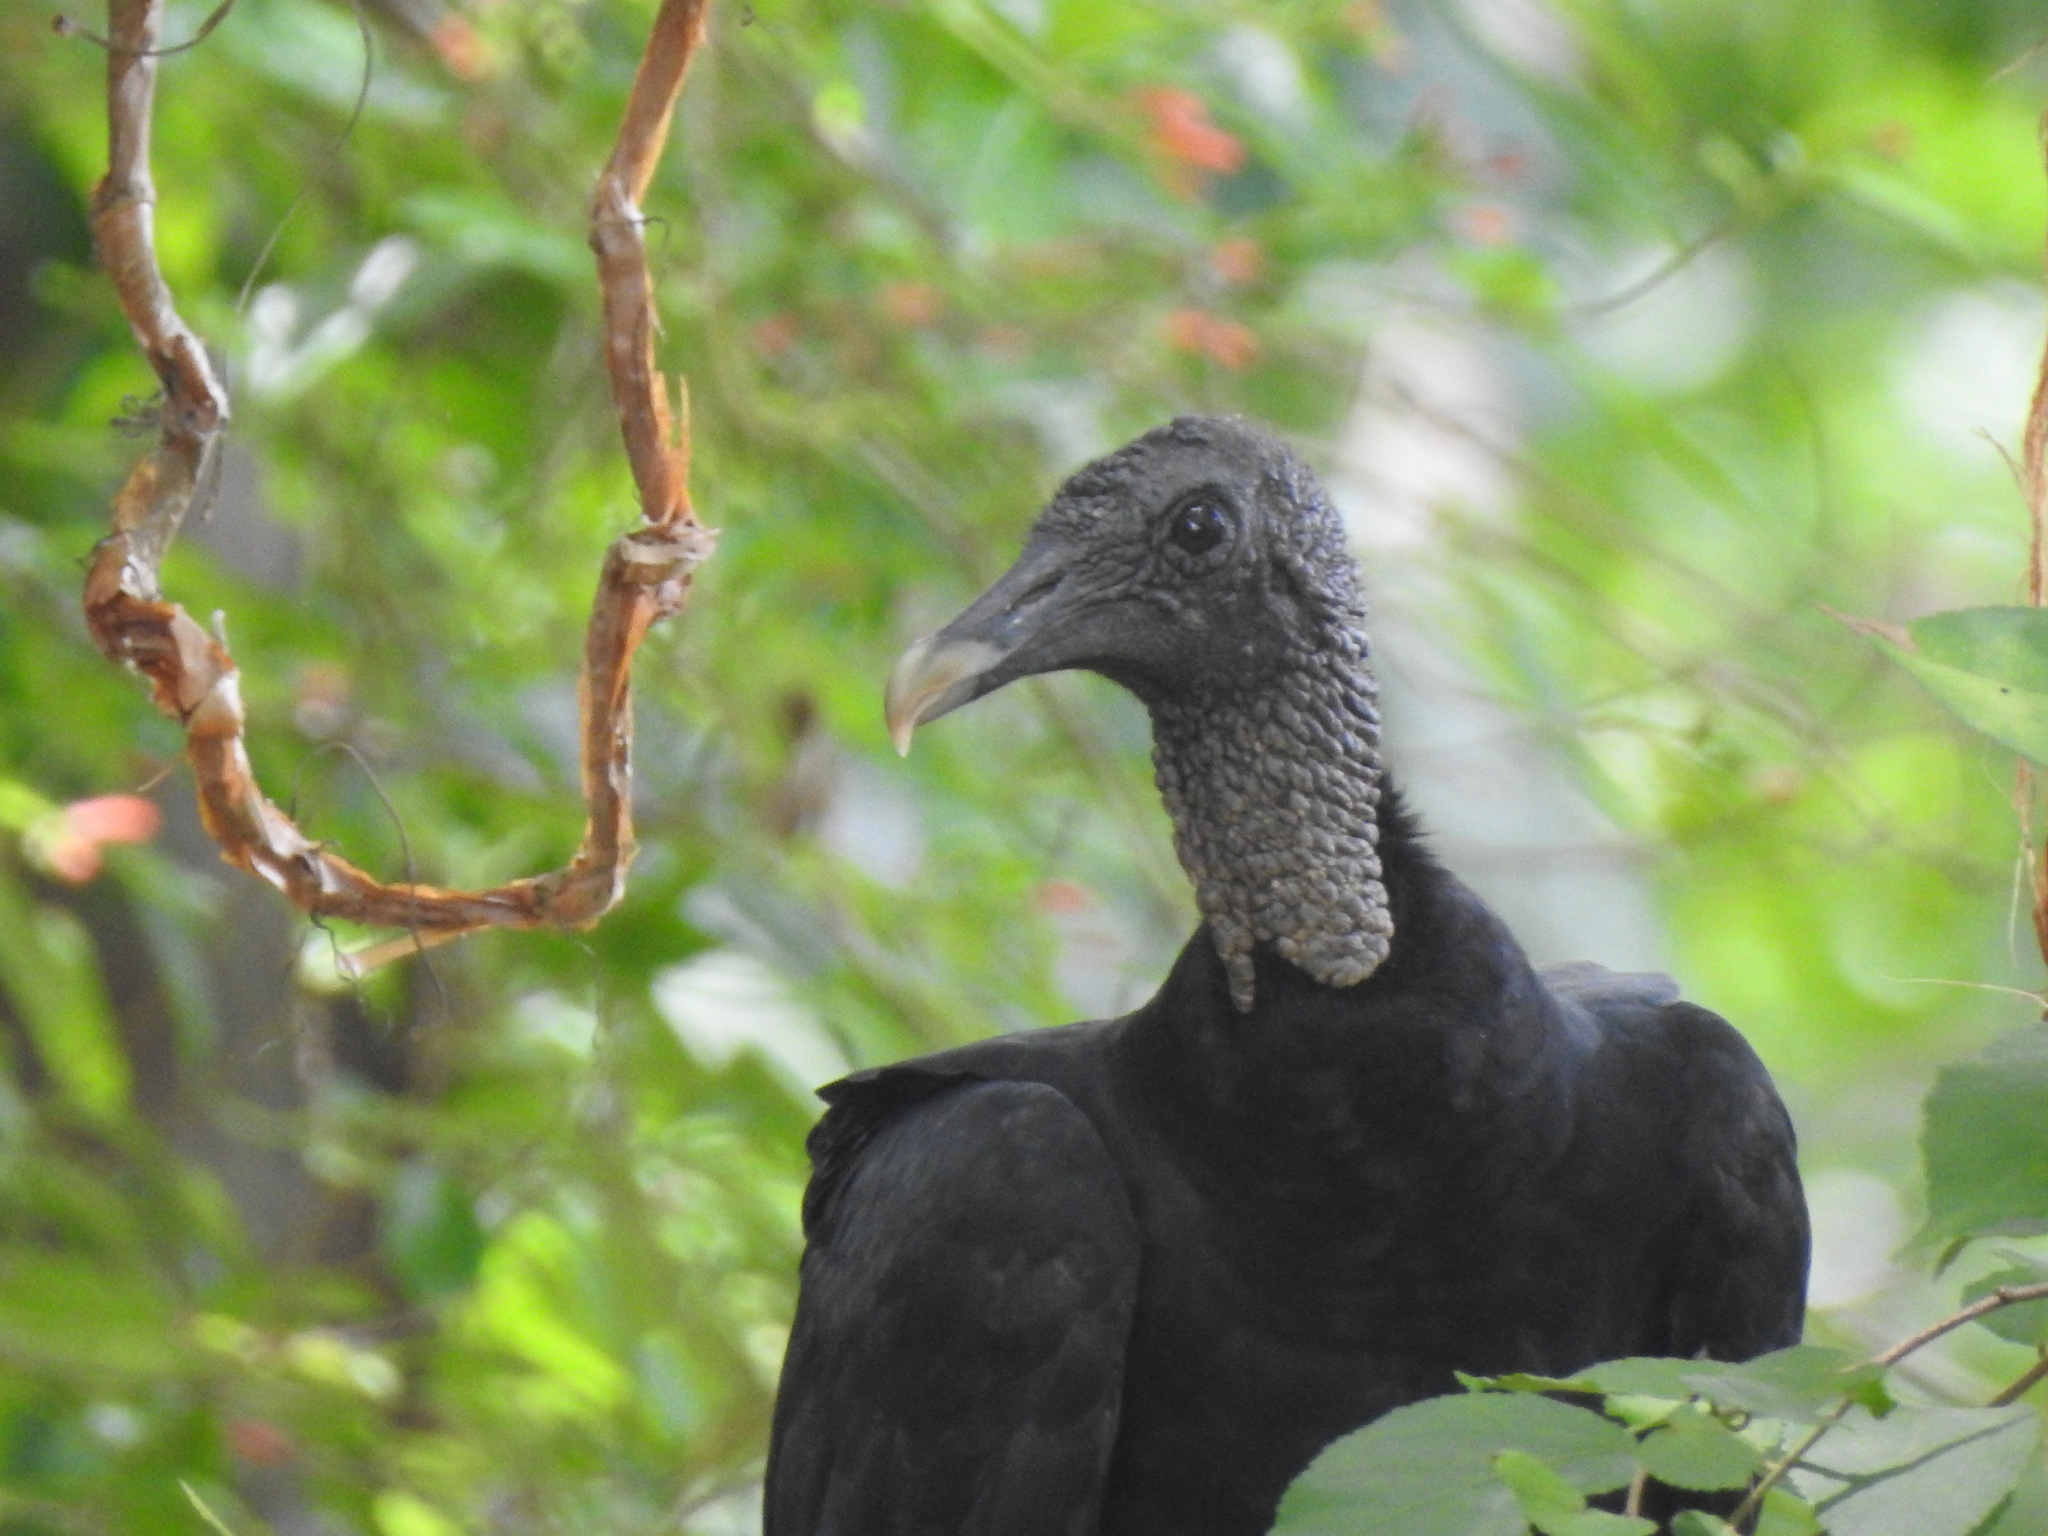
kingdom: Animalia
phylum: Chordata
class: Aves
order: Accipitriformes
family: Cathartidae
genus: Coragyps
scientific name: Coragyps atratus
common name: Black vulture
